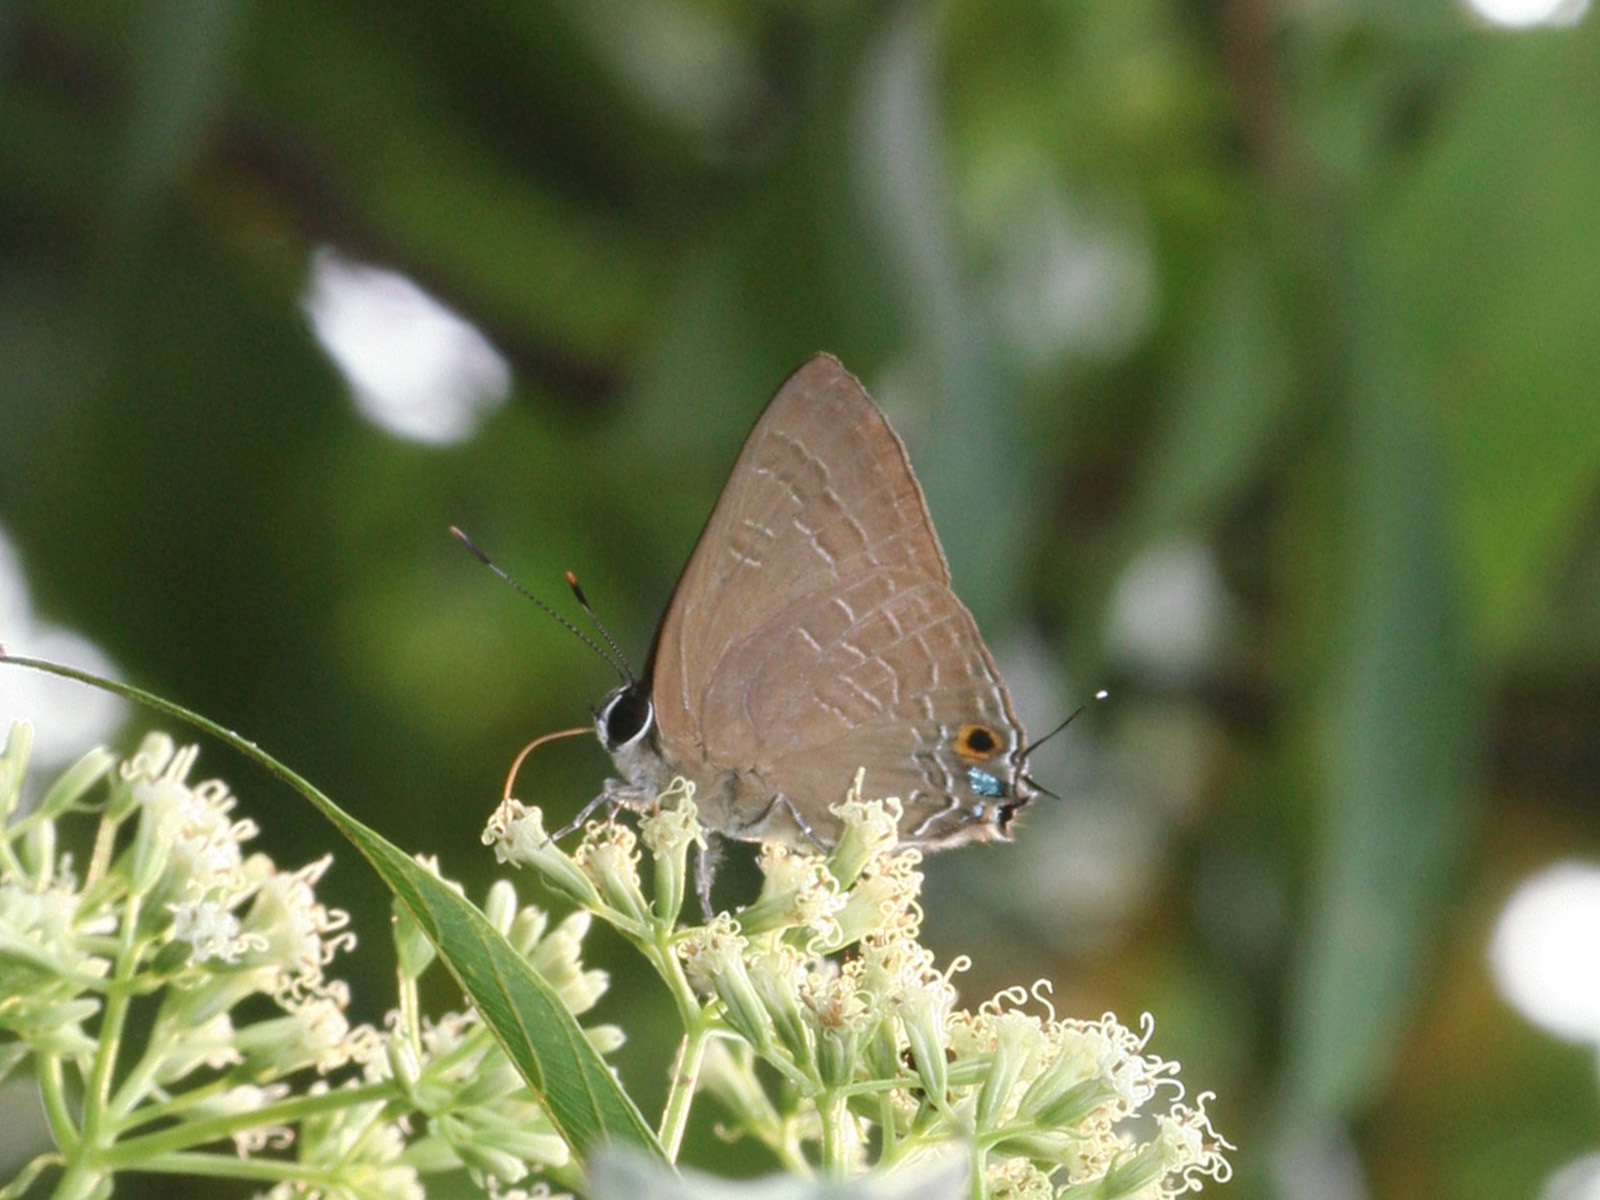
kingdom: Animalia
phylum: Arthropoda
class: Insecta
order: Lepidoptera
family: Lycaenidae
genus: Deudorix
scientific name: Deudorix epijarbas
